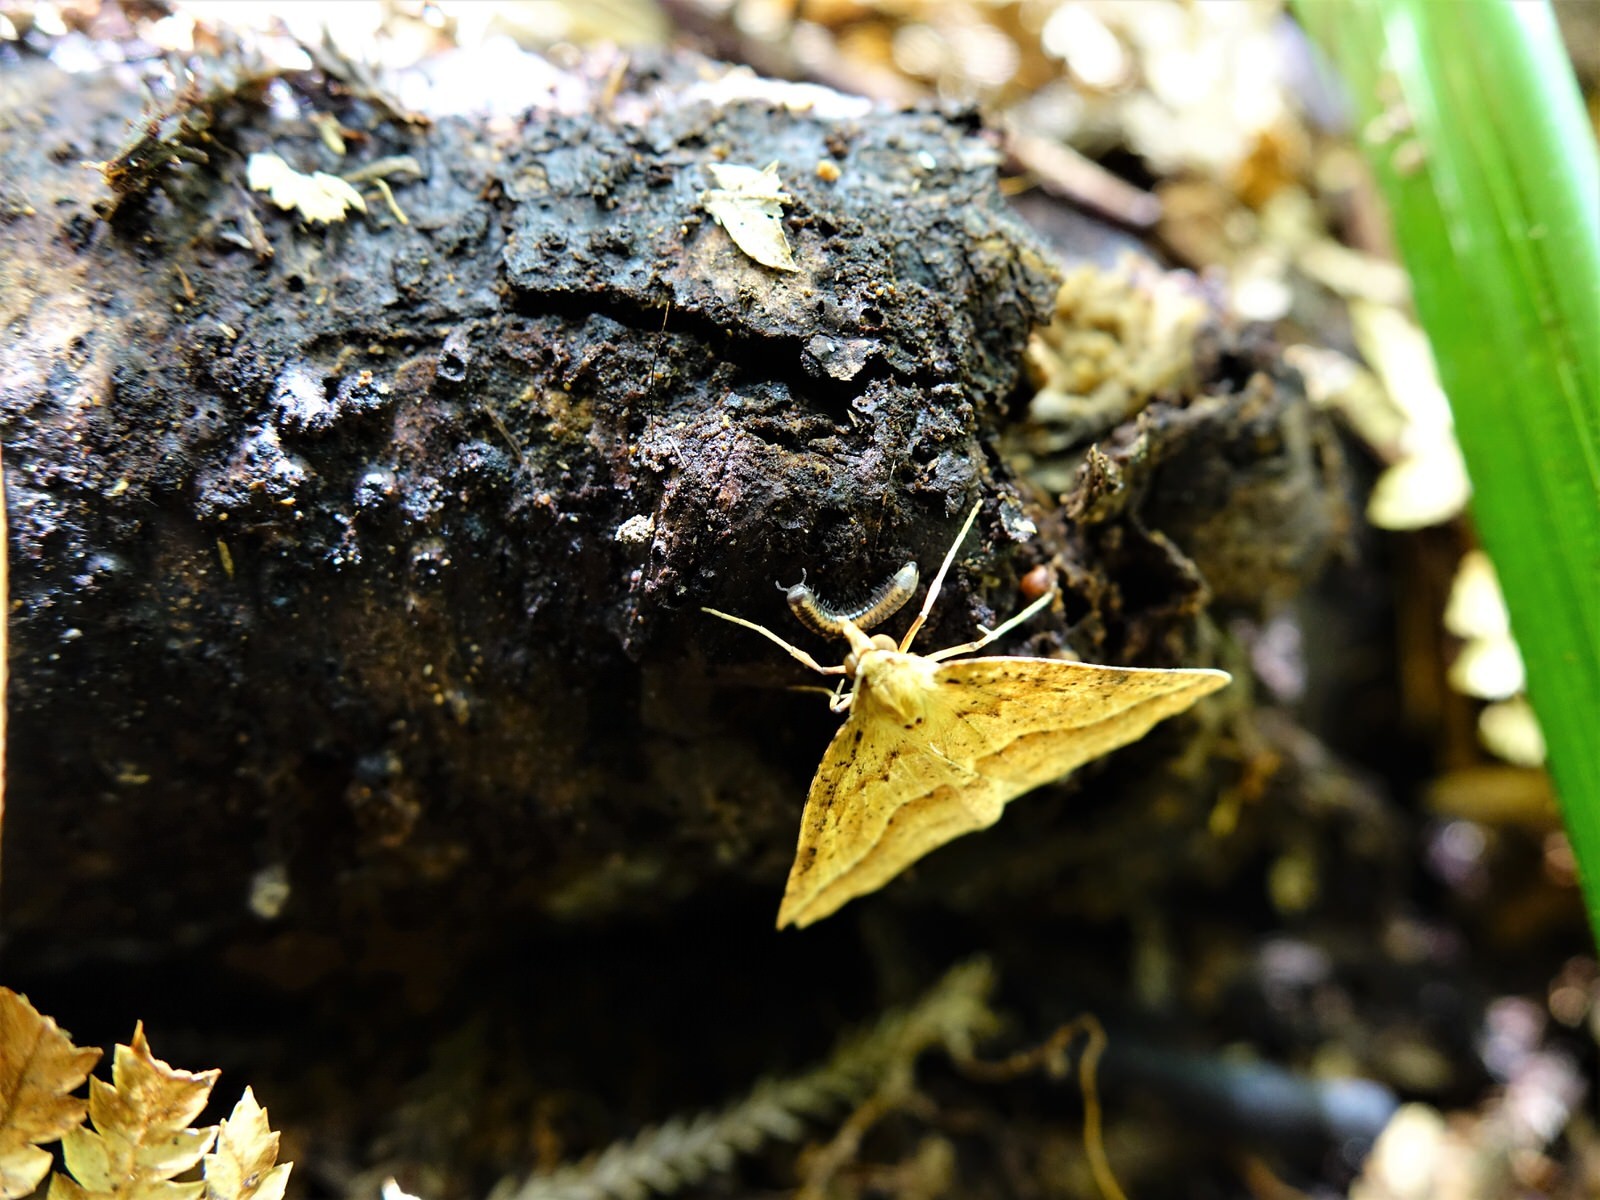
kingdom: Animalia
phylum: Arthropoda
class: Insecta
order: Lepidoptera
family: Geometridae
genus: Ischalis
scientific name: Ischalis variabilis
